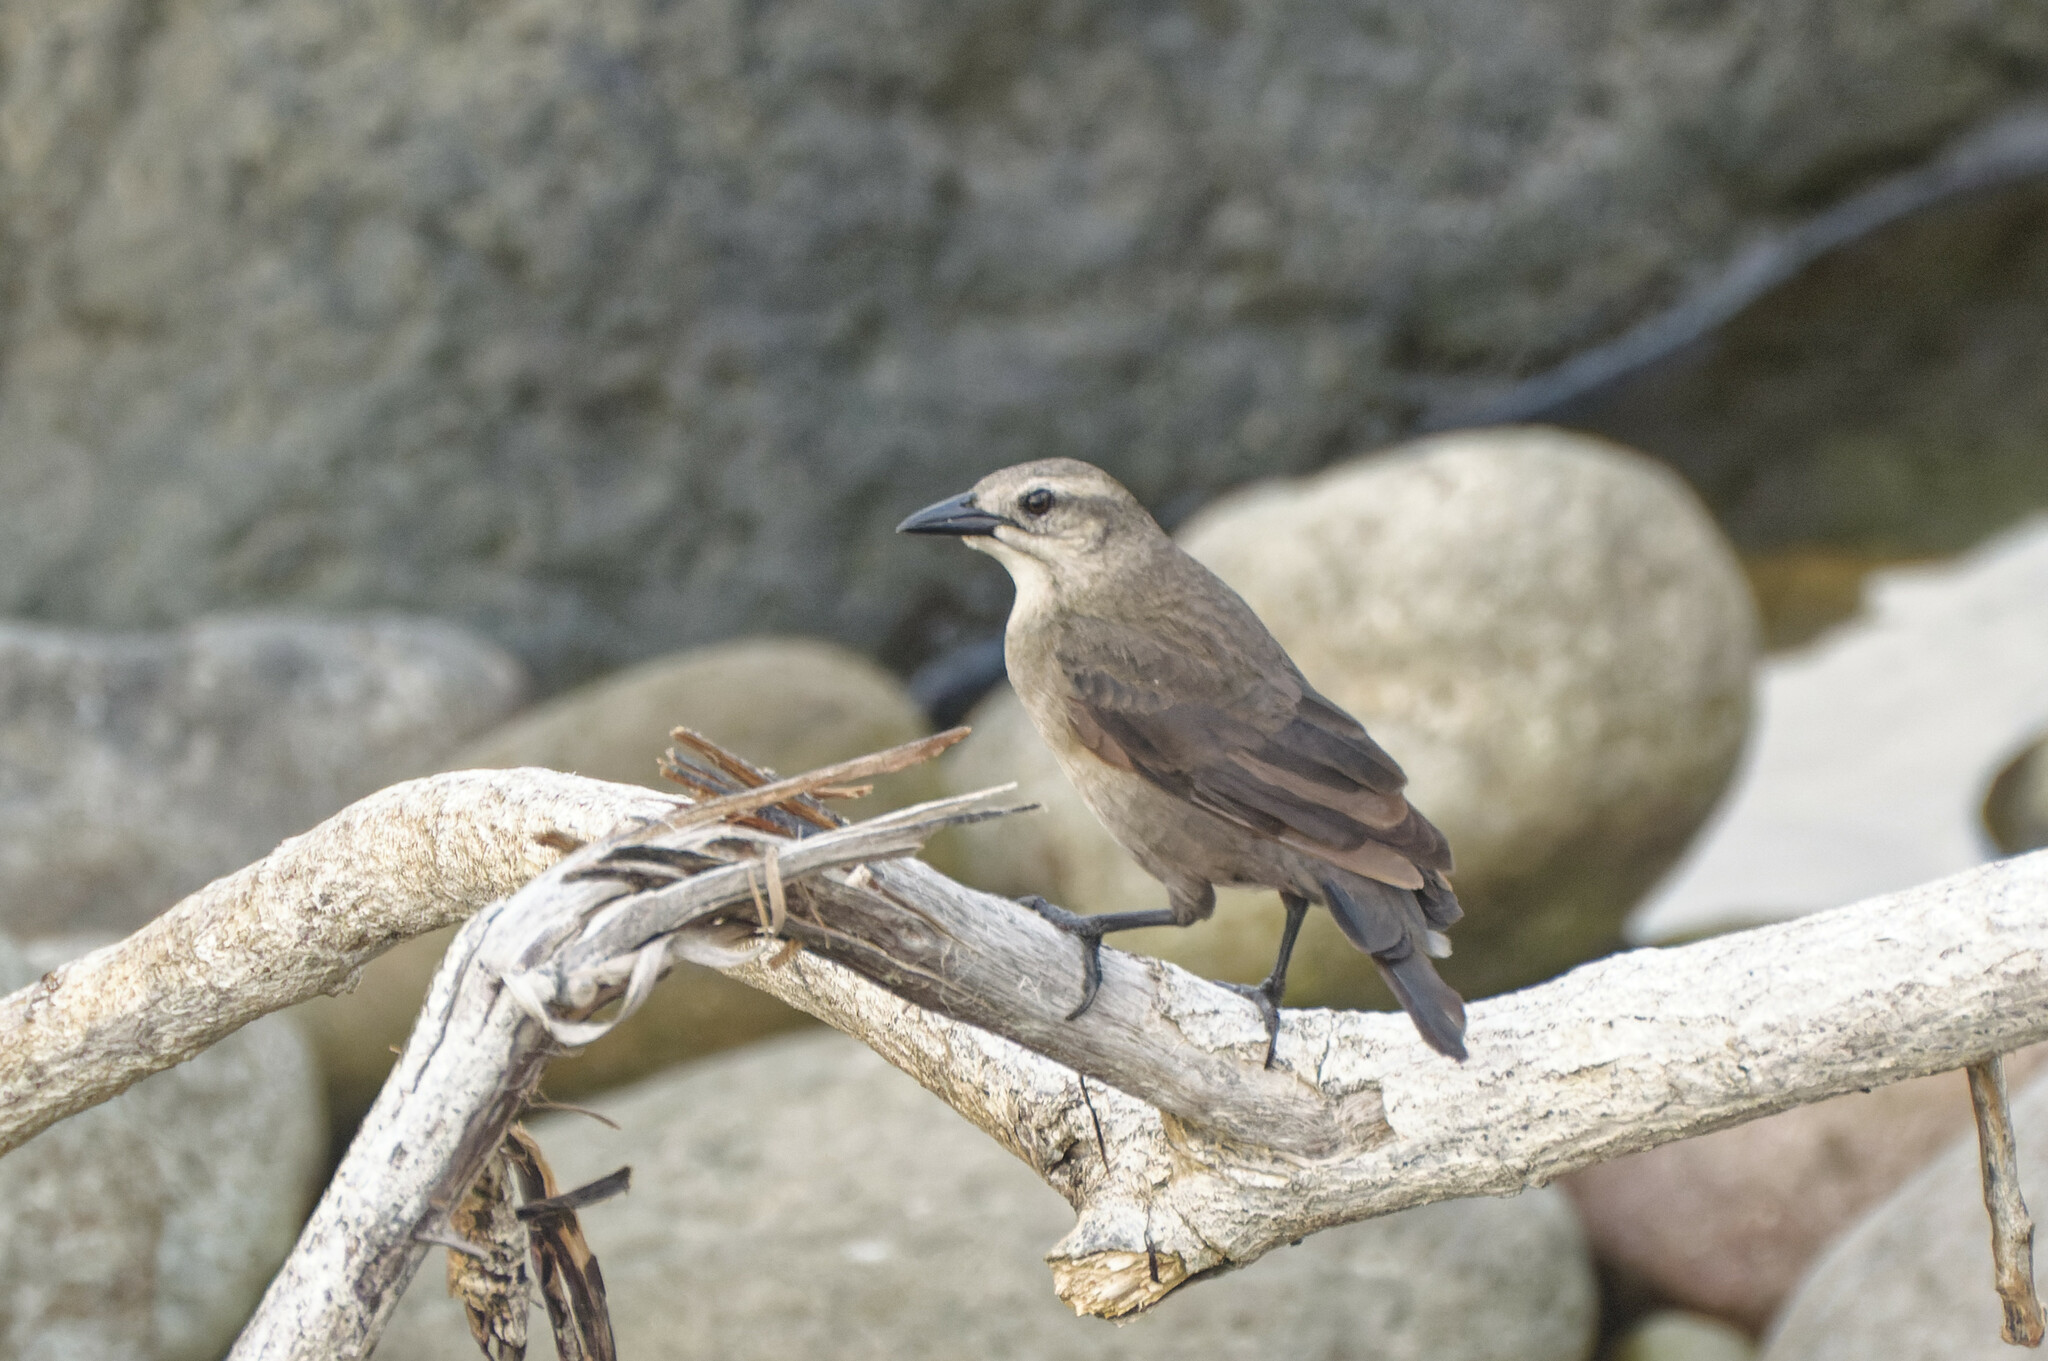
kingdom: Animalia
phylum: Chordata
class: Aves
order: Passeriformes
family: Icteridae
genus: Quiscalus
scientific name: Quiscalus lugubris
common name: Carib grackle
